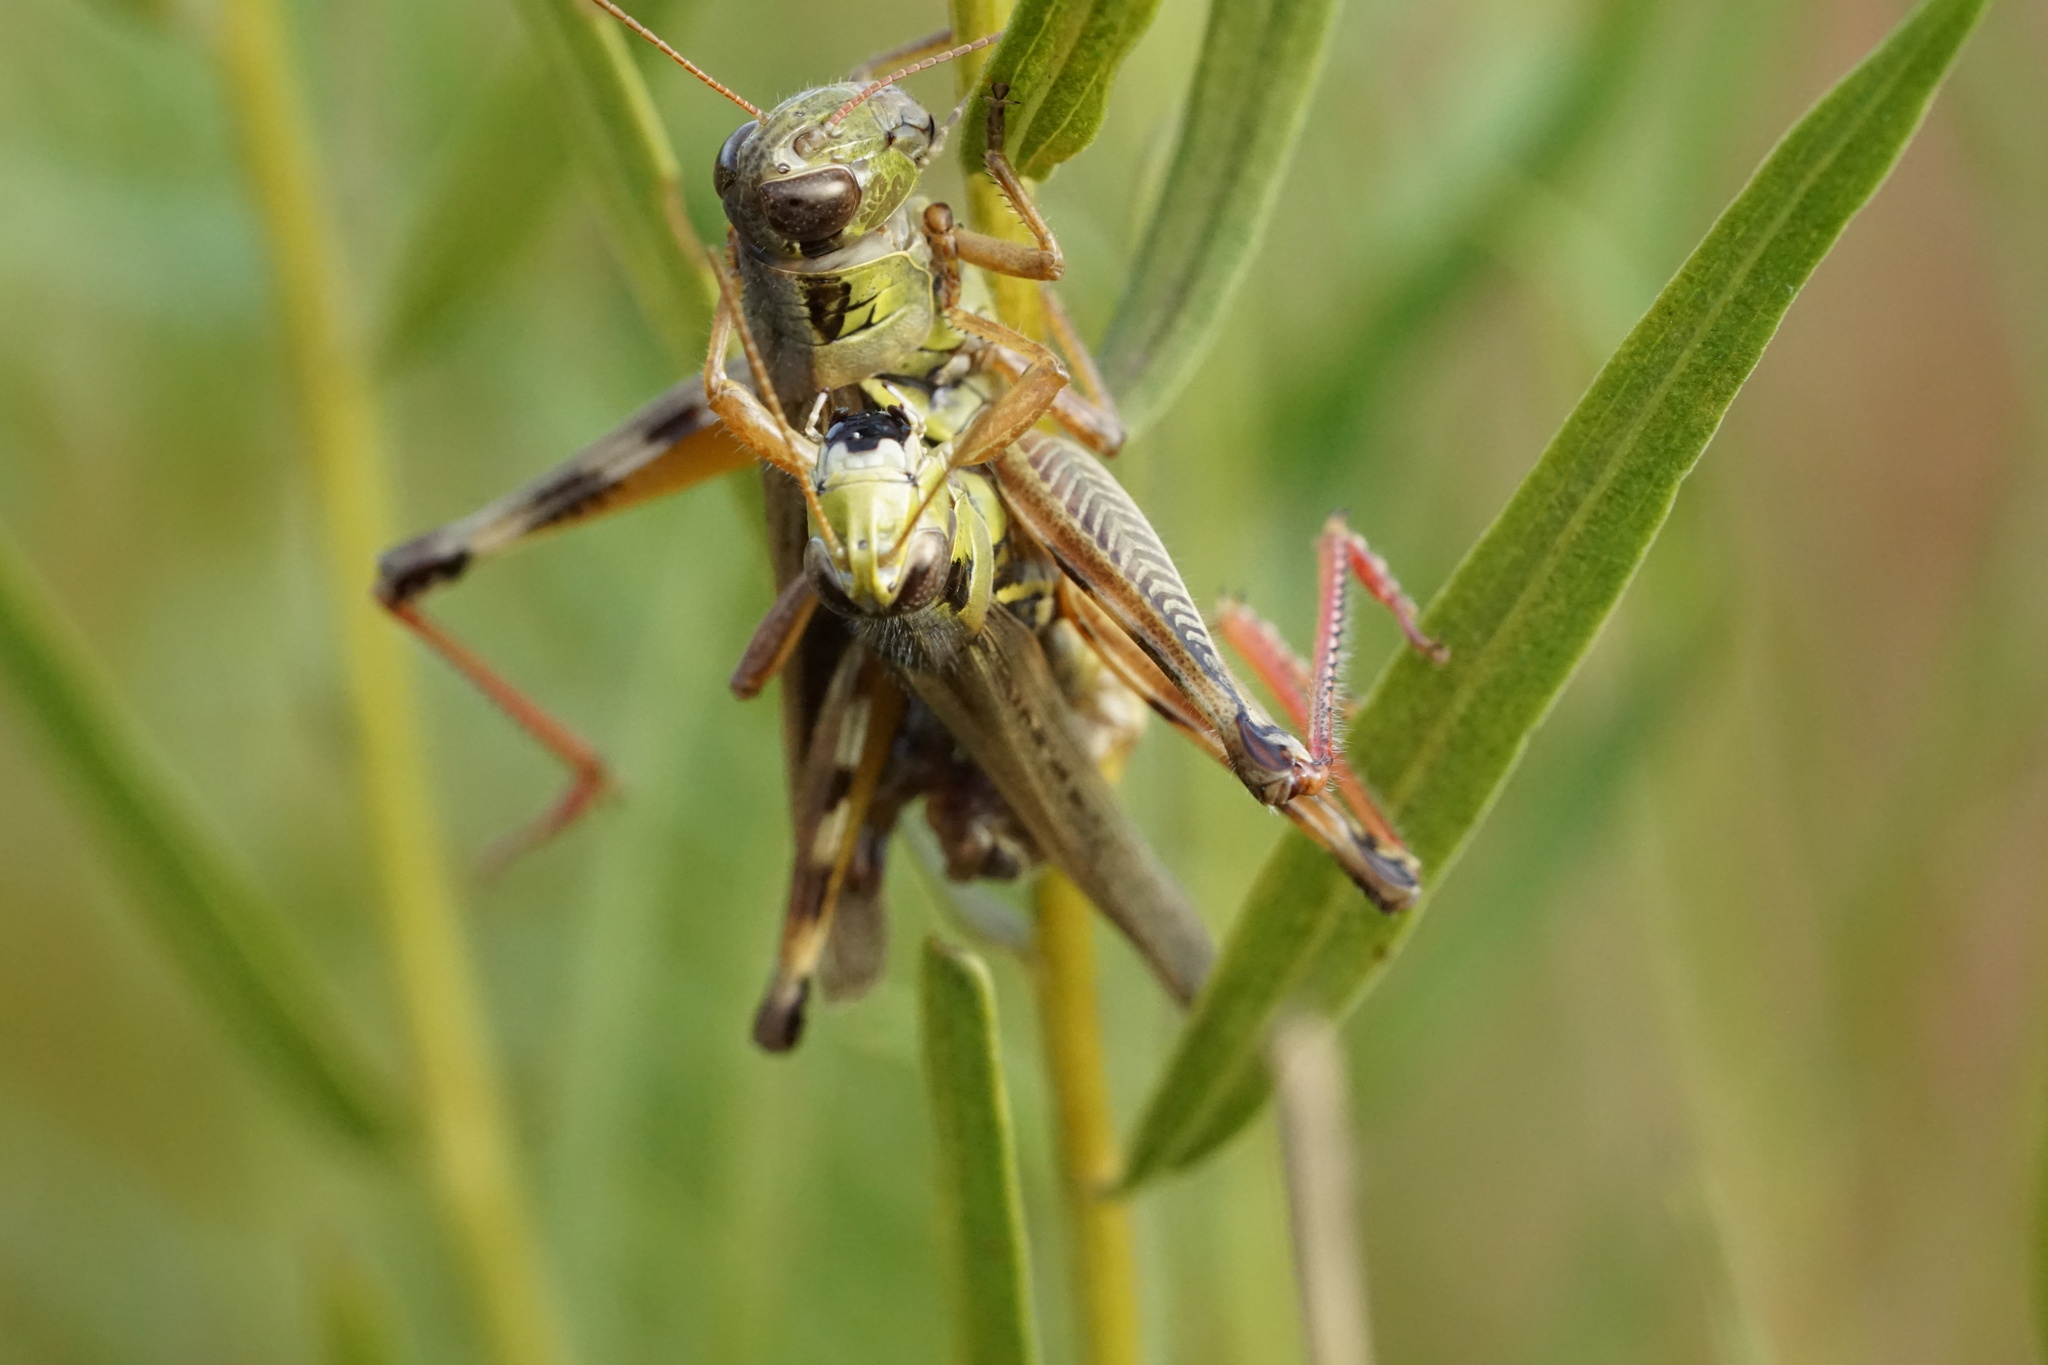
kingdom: Animalia
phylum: Arthropoda
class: Insecta
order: Orthoptera
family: Acrididae
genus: Melanoplus
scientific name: Melanoplus femurrubrum
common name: Red-legged grasshopper
